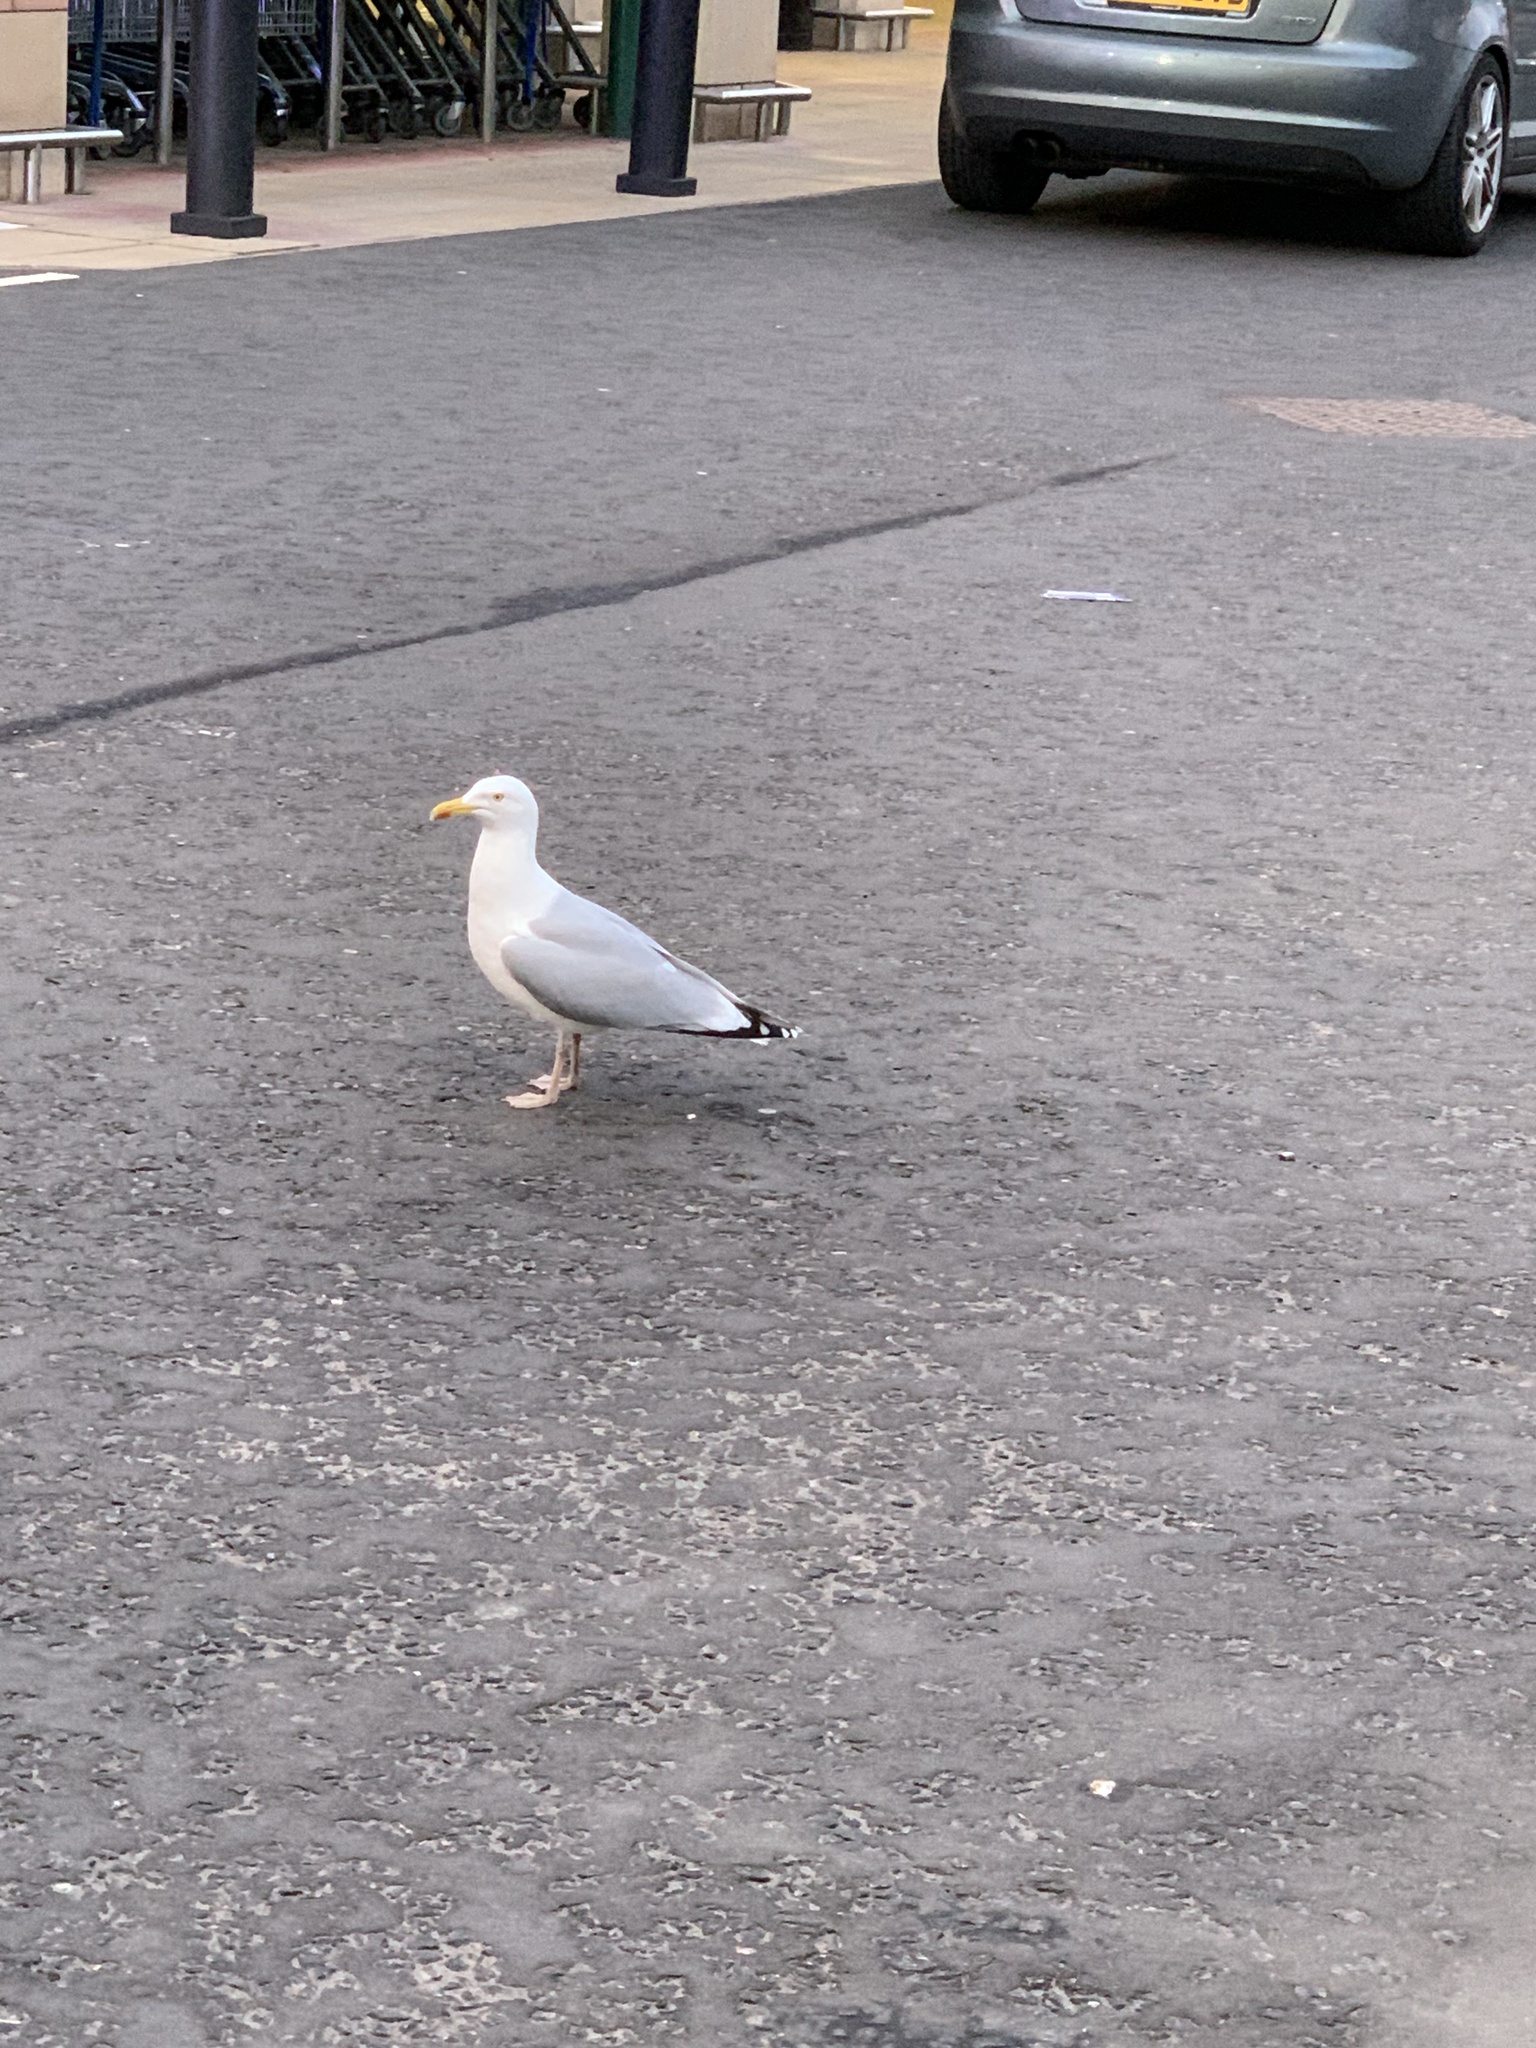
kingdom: Animalia
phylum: Chordata
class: Aves
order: Charadriiformes
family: Laridae
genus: Larus
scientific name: Larus argentatus
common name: Herring gull
